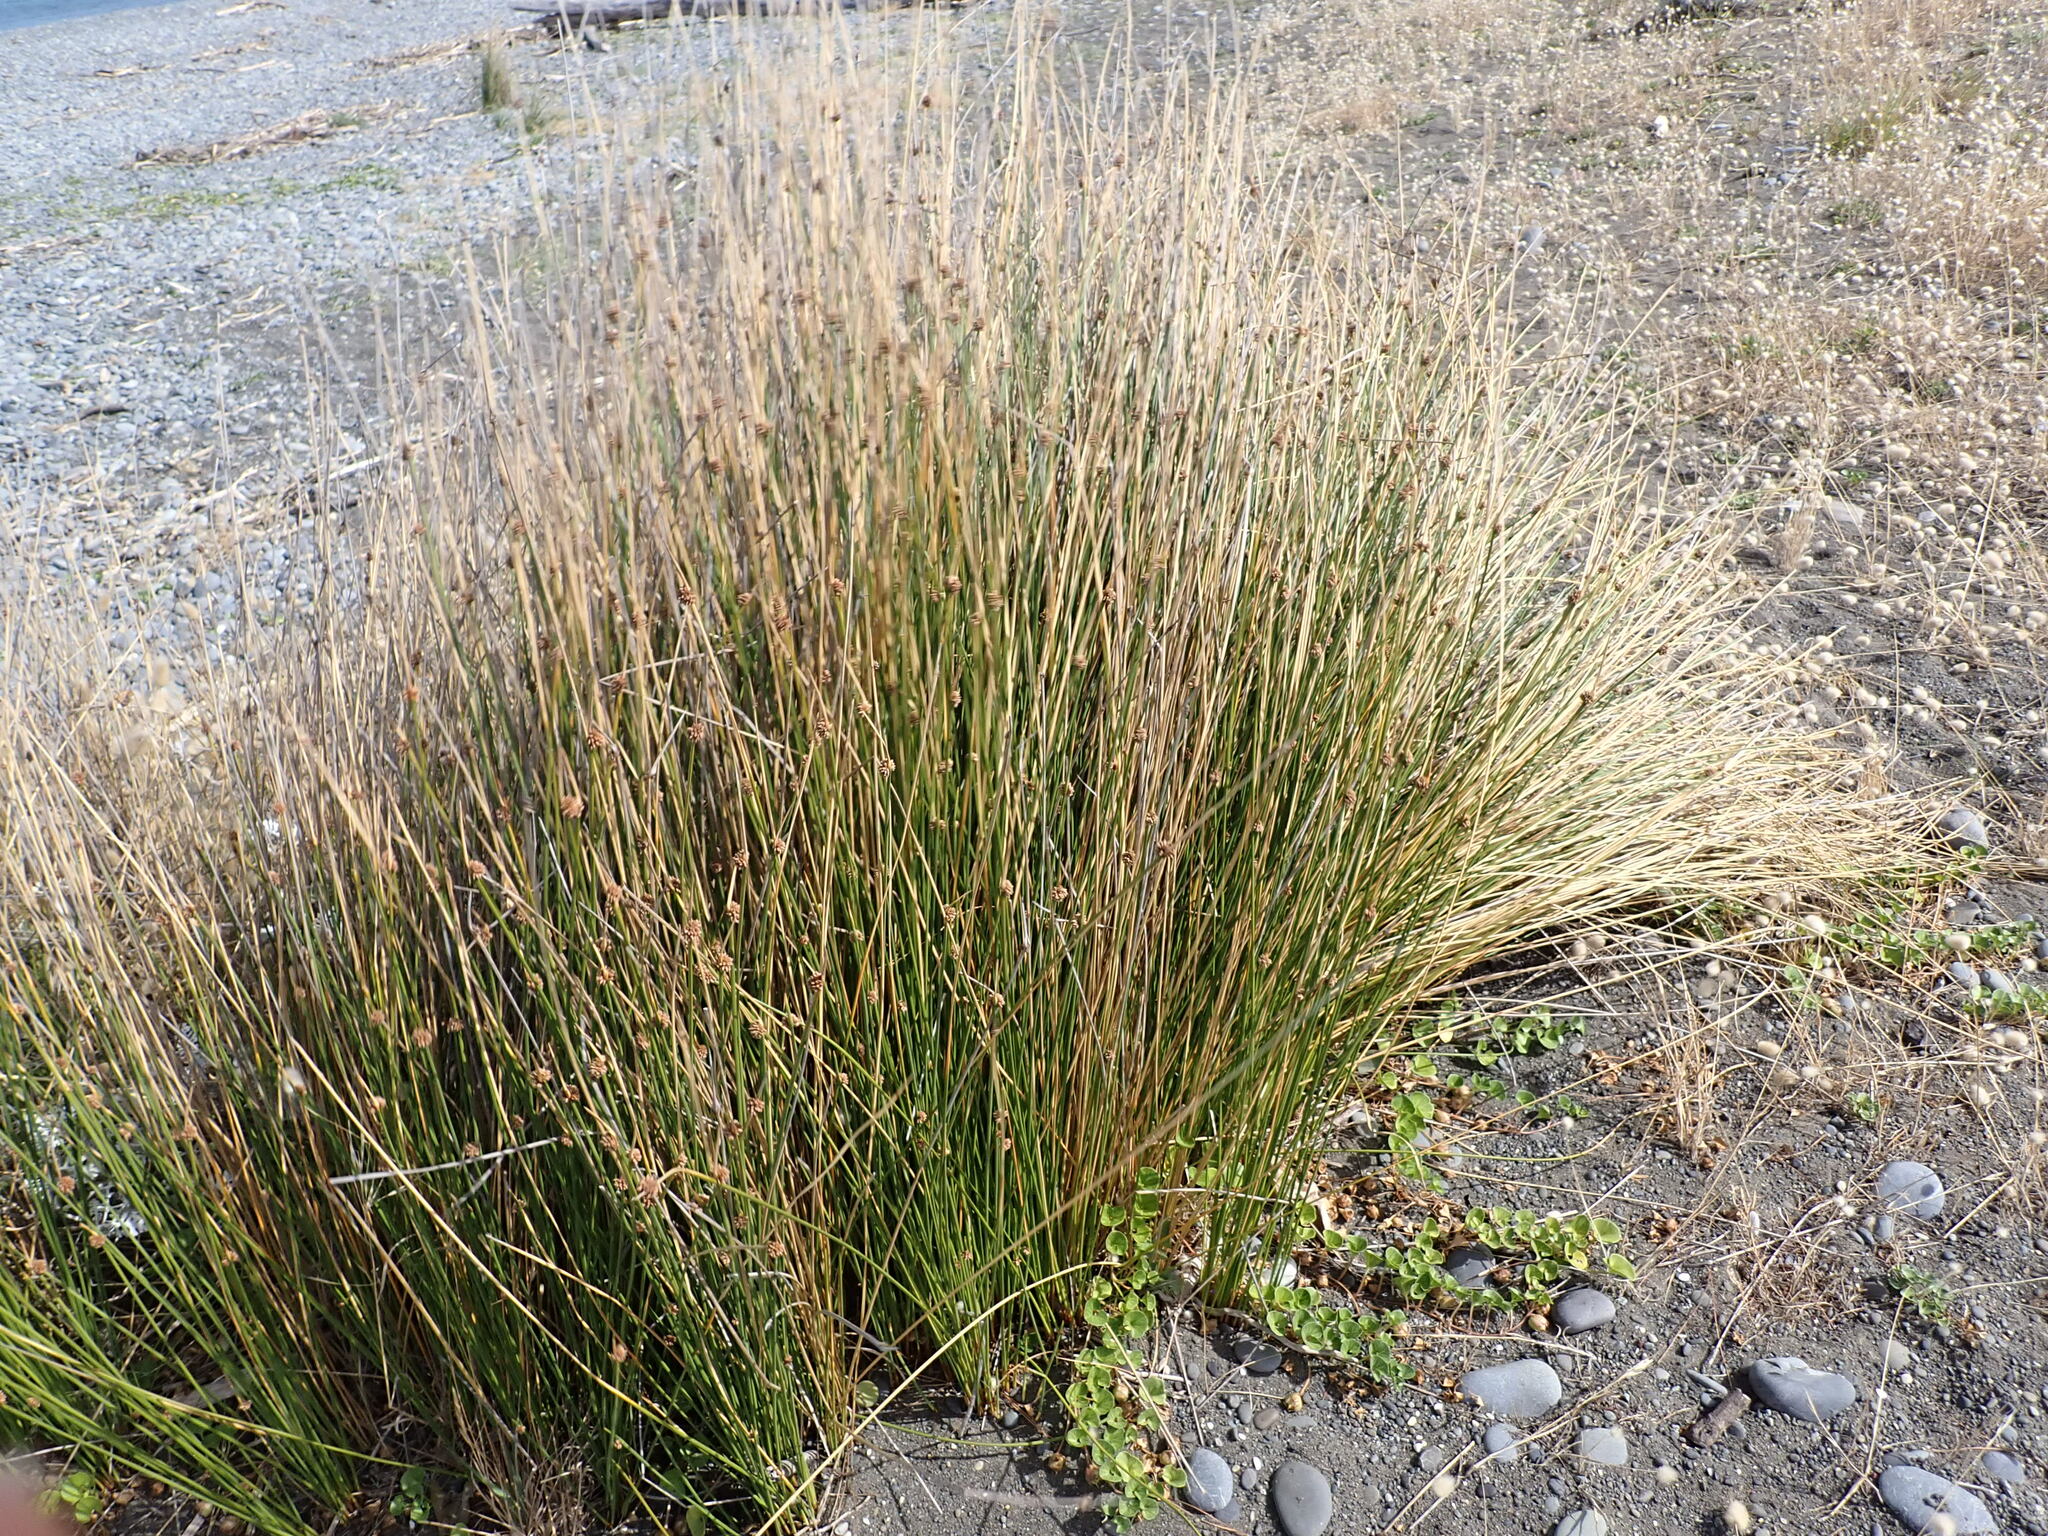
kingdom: Plantae
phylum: Tracheophyta
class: Liliopsida
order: Poales
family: Cyperaceae
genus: Ficinia
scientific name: Ficinia nodosa
